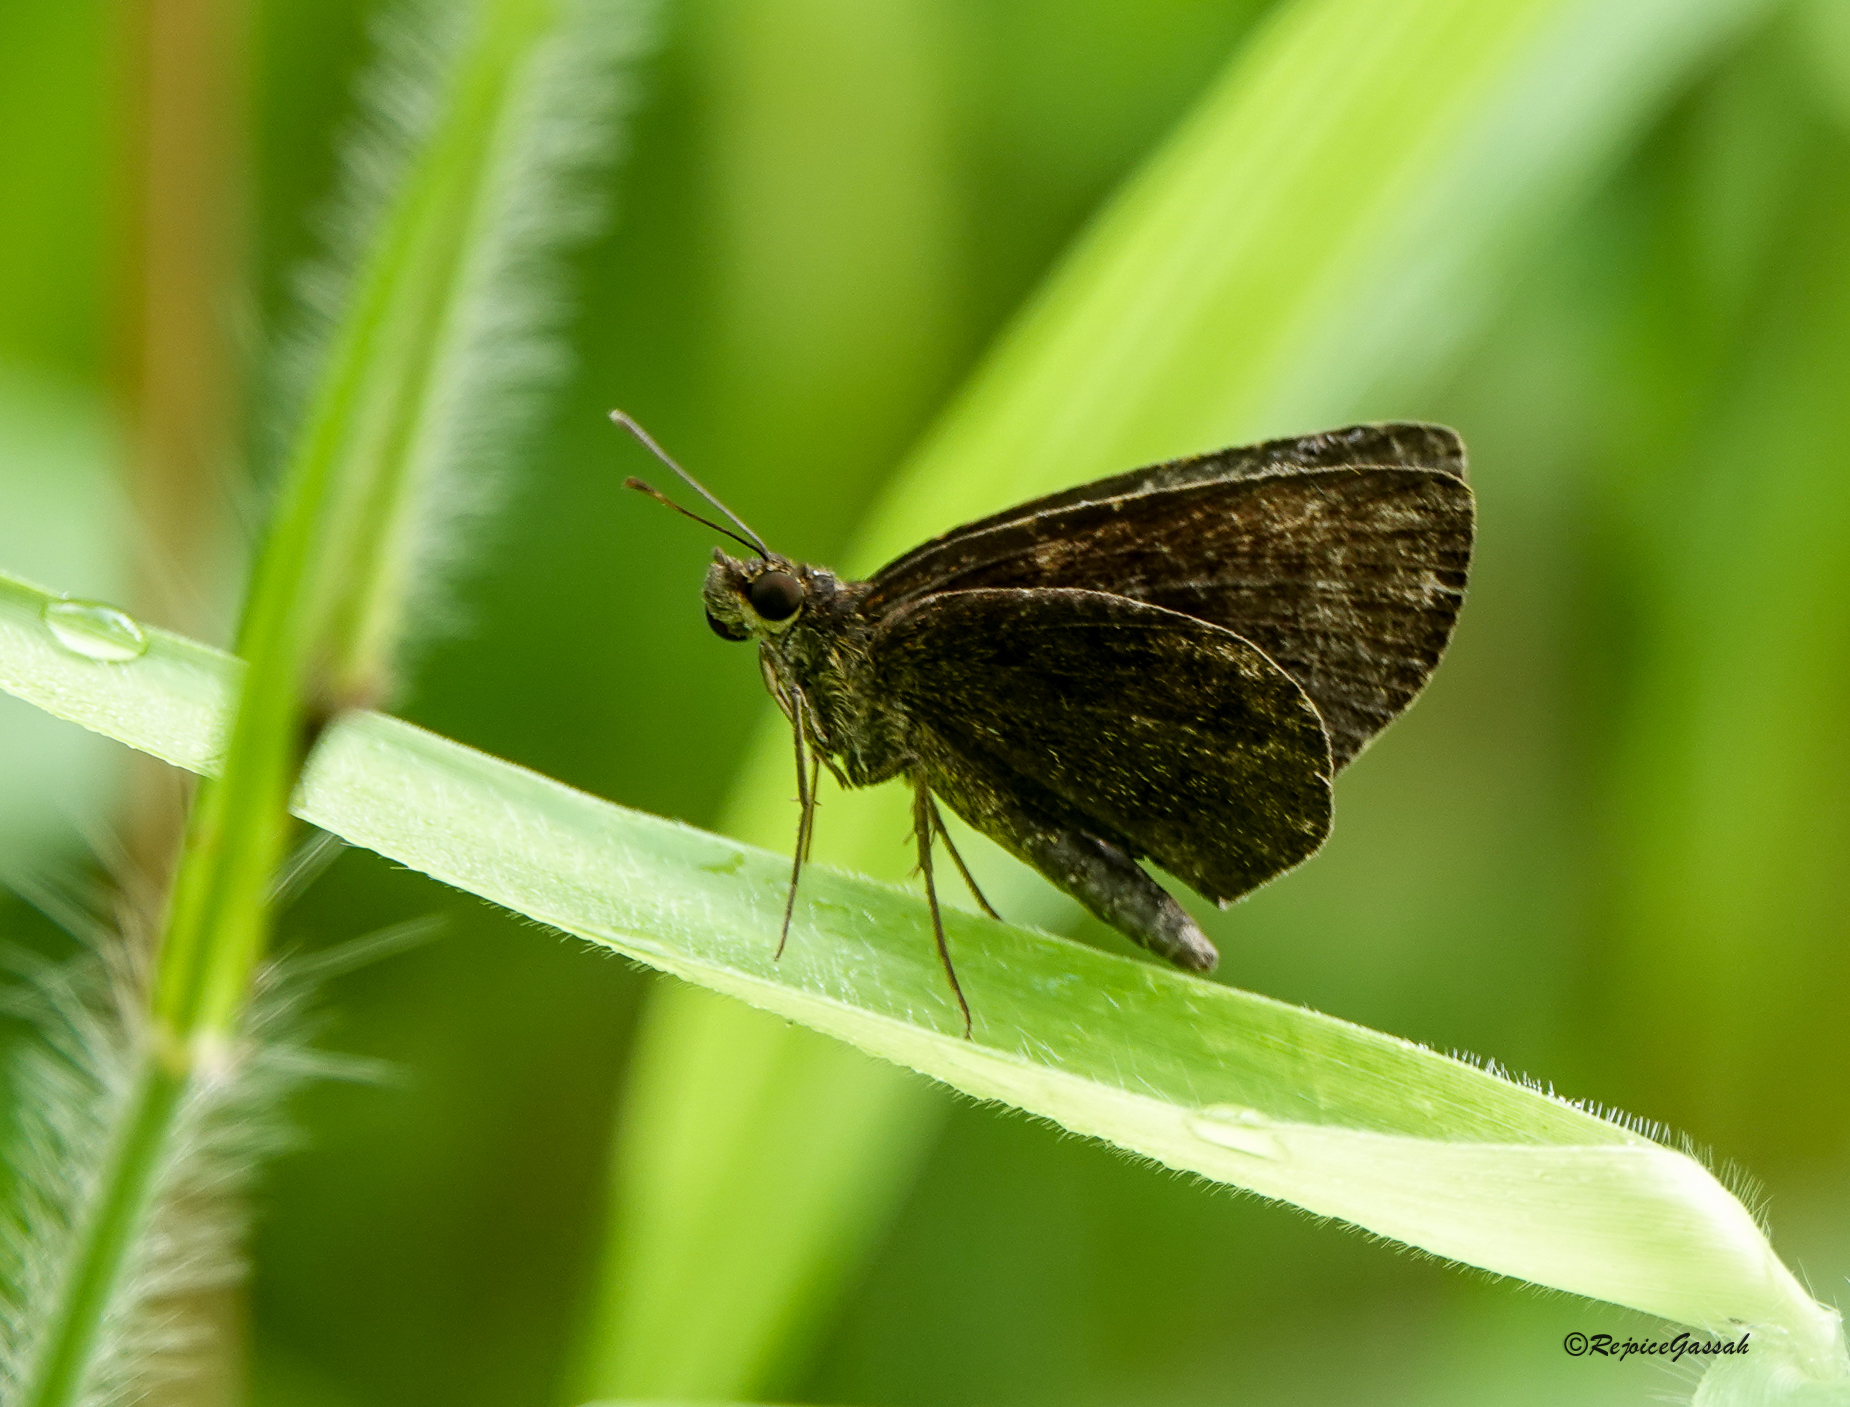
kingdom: Animalia
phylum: Arthropoda
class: Insecta
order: Lepidoptera
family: Hesperiidae
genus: Astictopterus
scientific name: Astictopterus jama
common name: Forest hopper
